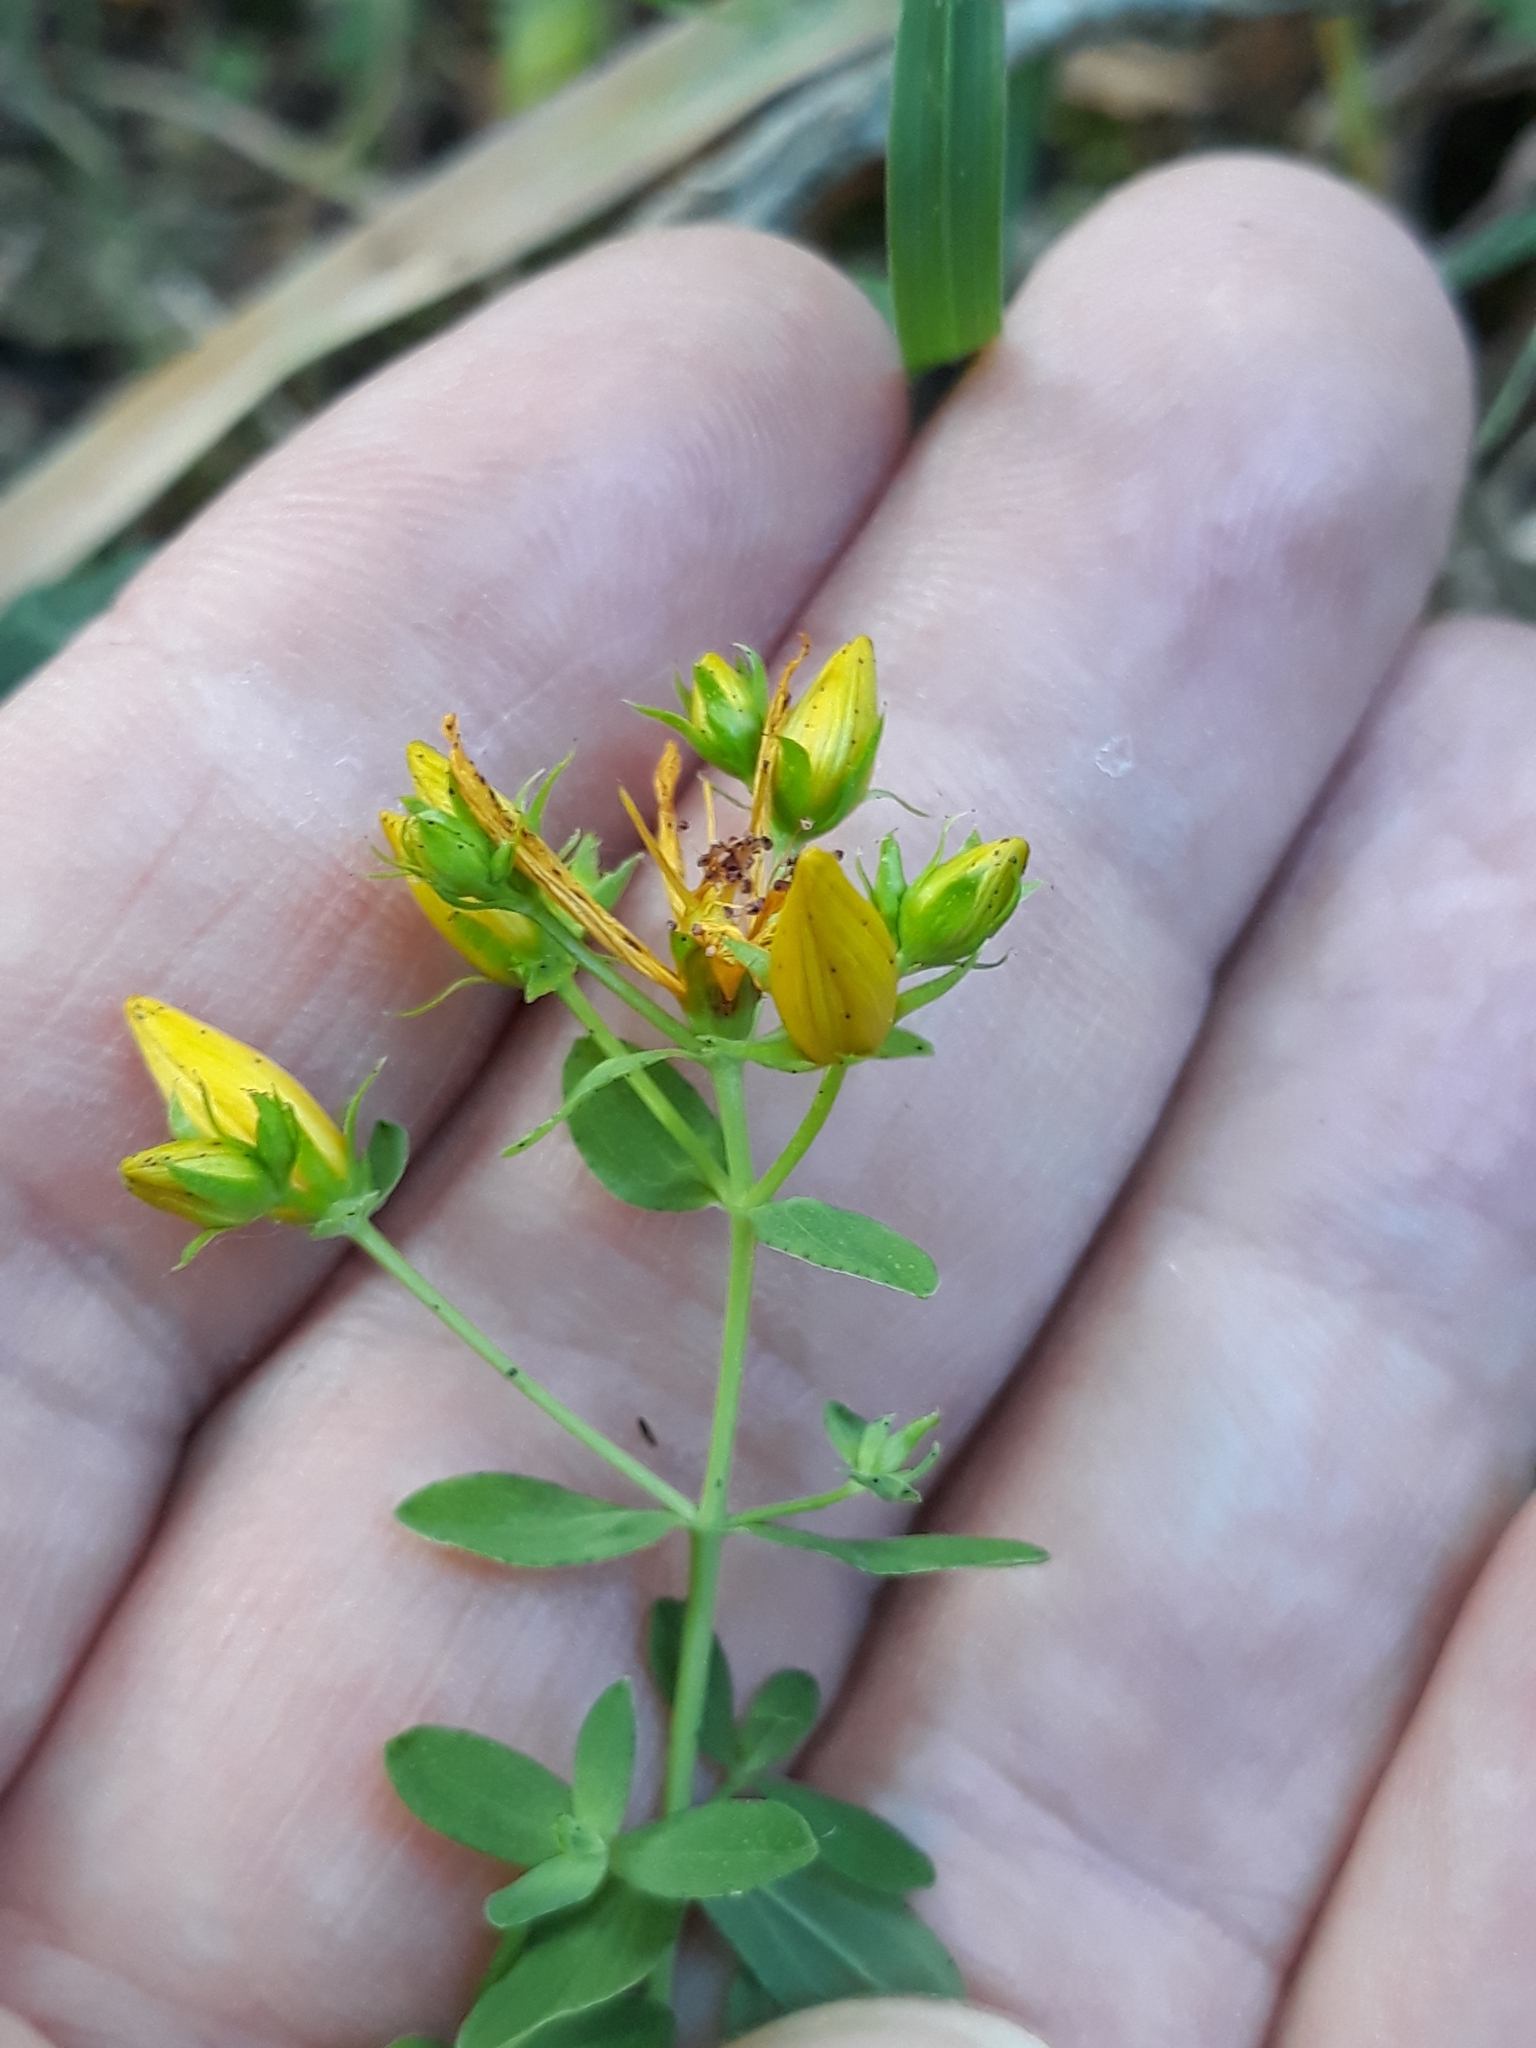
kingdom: Plantae
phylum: Tracheophyta
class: Magnoliopsida
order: Malpighiales
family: Hypericaceae
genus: Hypericum
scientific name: Hypericum perforatum
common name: Common st. johnswort
